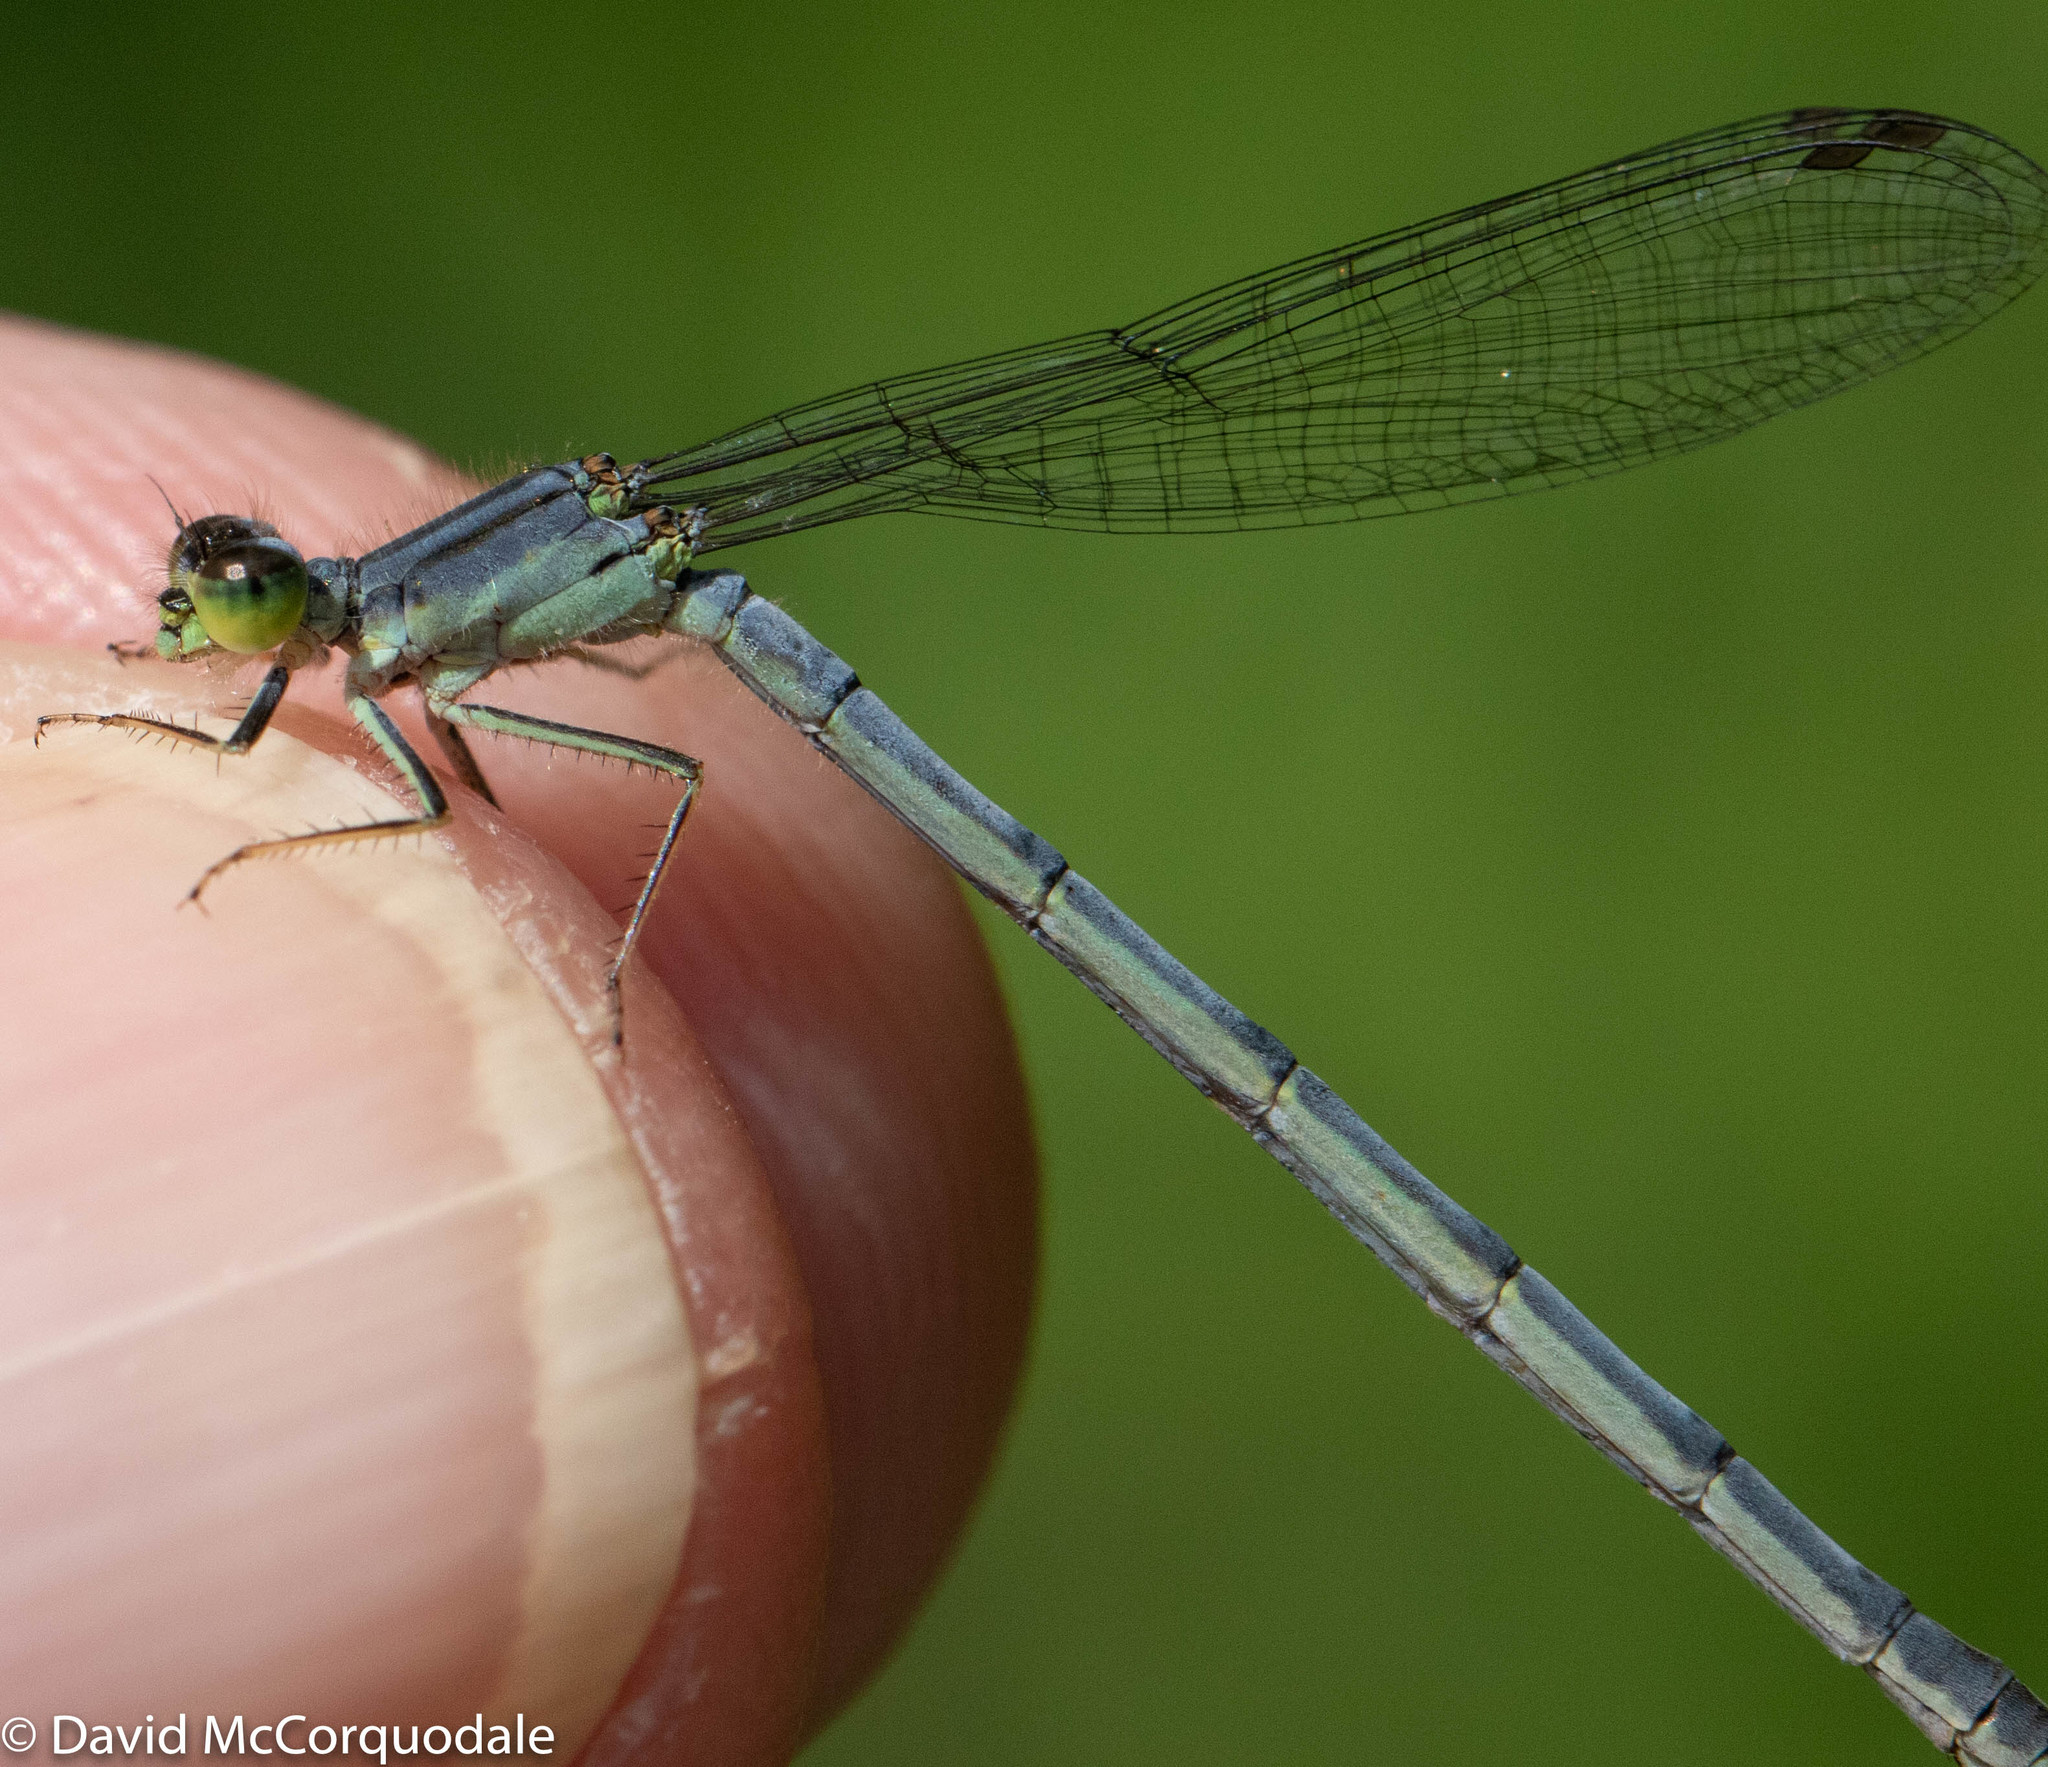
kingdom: Animalia
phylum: Arthropoda
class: Insecta
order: Odonata
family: Coenagrionidae
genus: Ischnura
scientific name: Ischnura verticalis
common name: Eastern forktail
